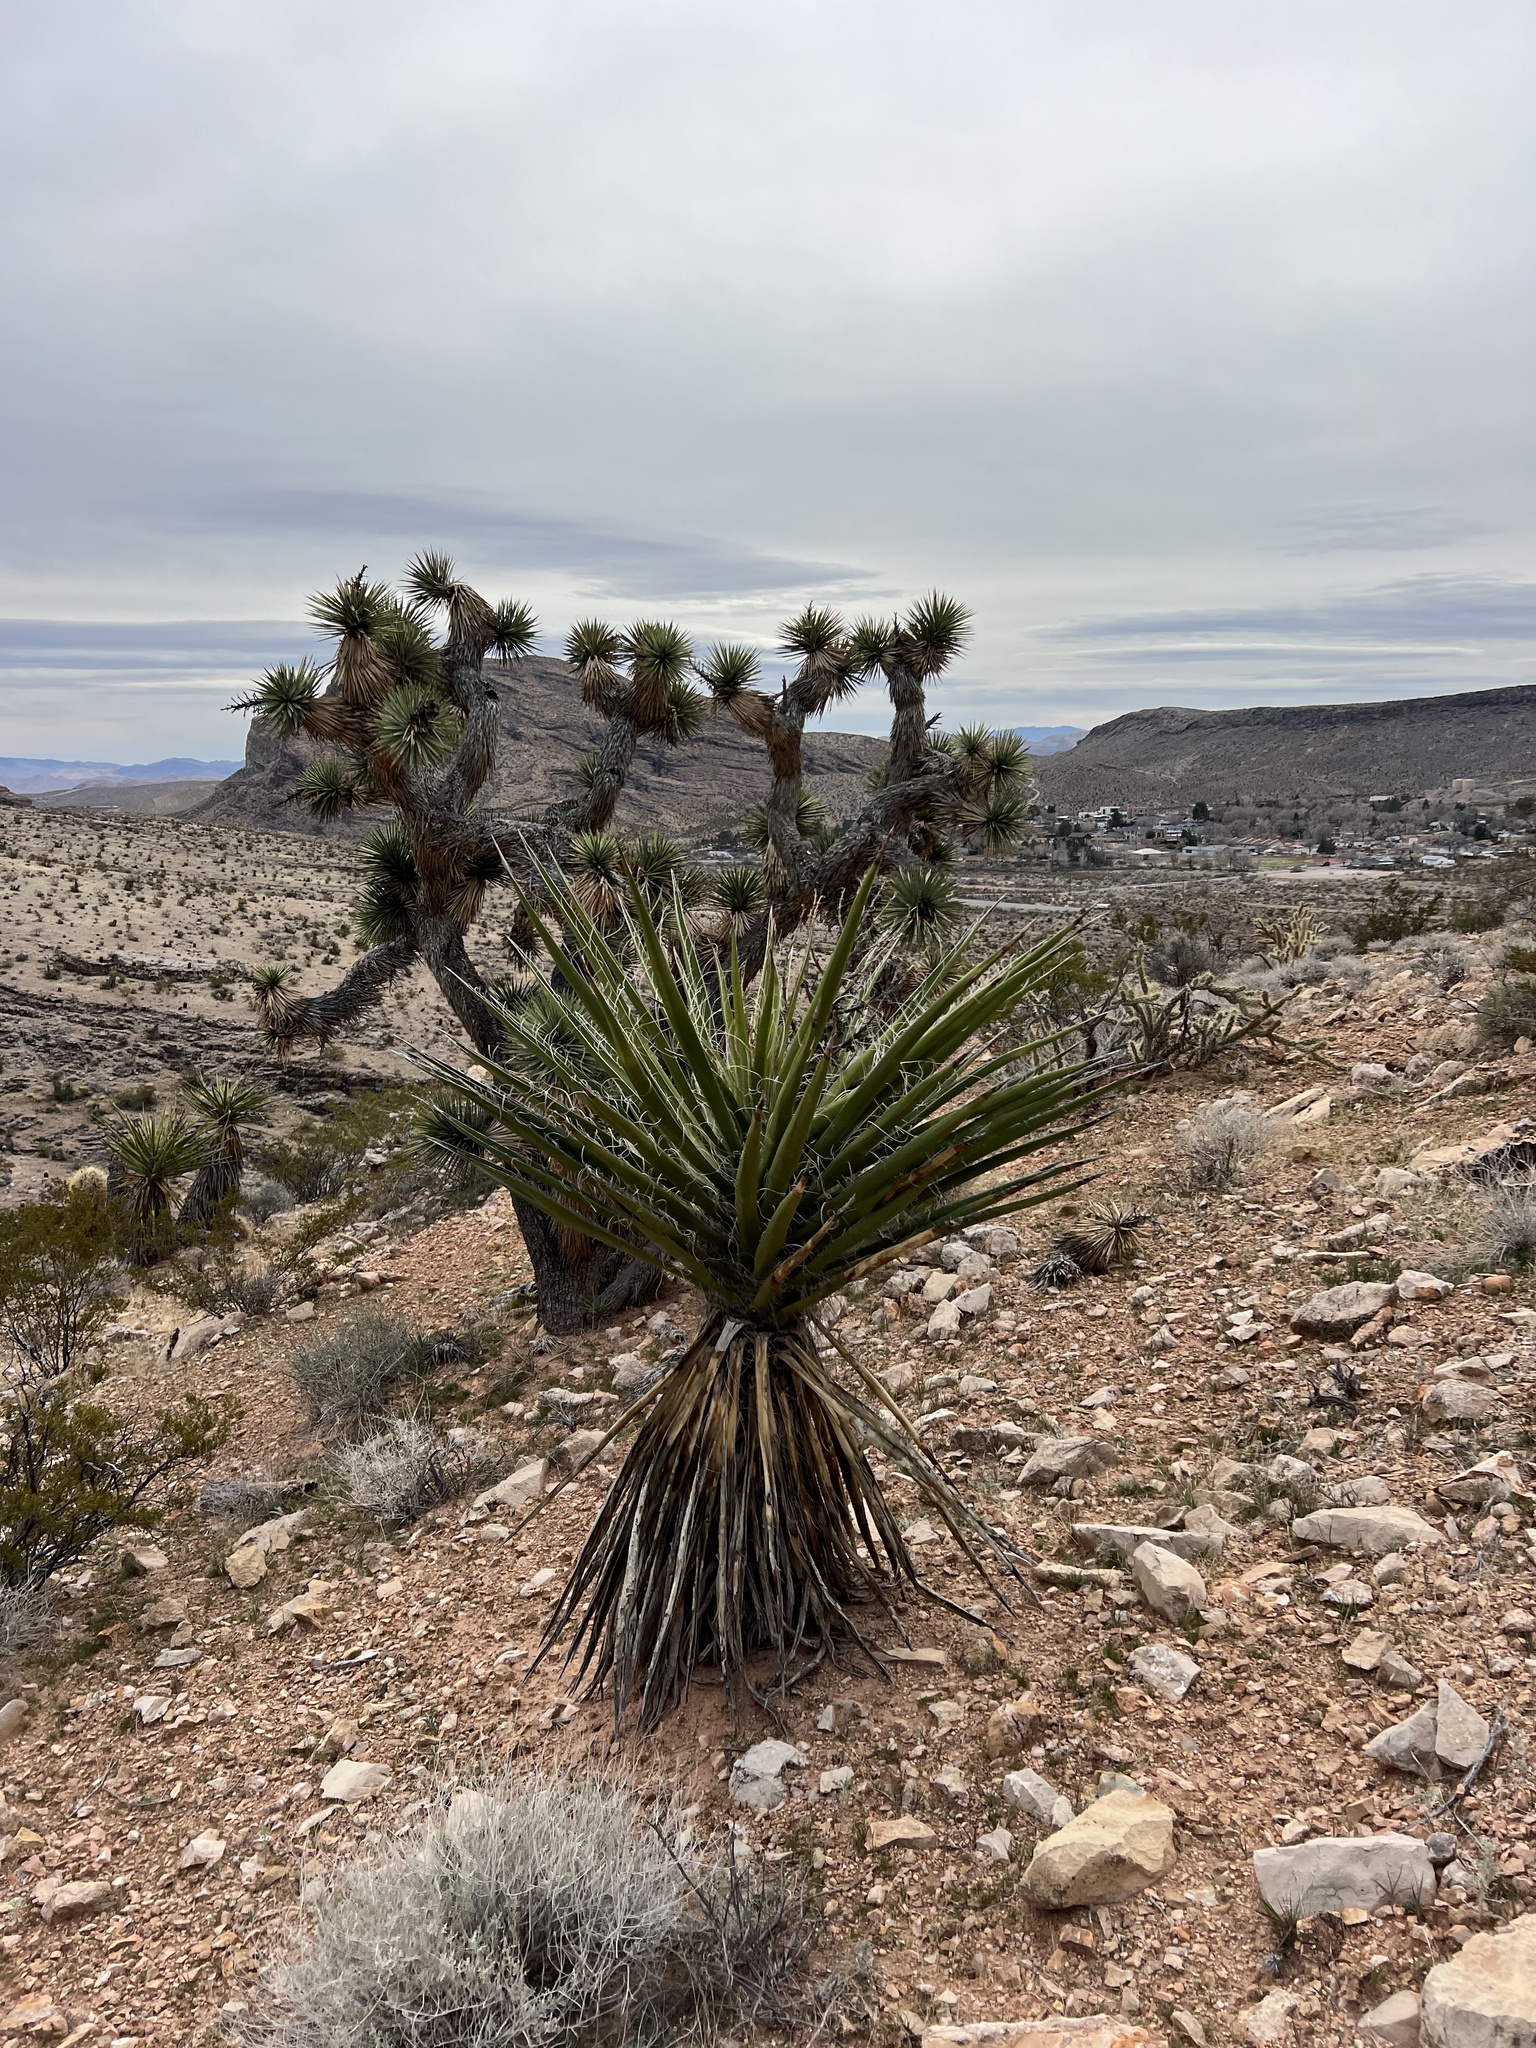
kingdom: Plantae
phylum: Tracheophyta
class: Liliopsida
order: Asparagales
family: Asparagaceae
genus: Yucca
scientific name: Yucca schidigera
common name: Mojave yucca
